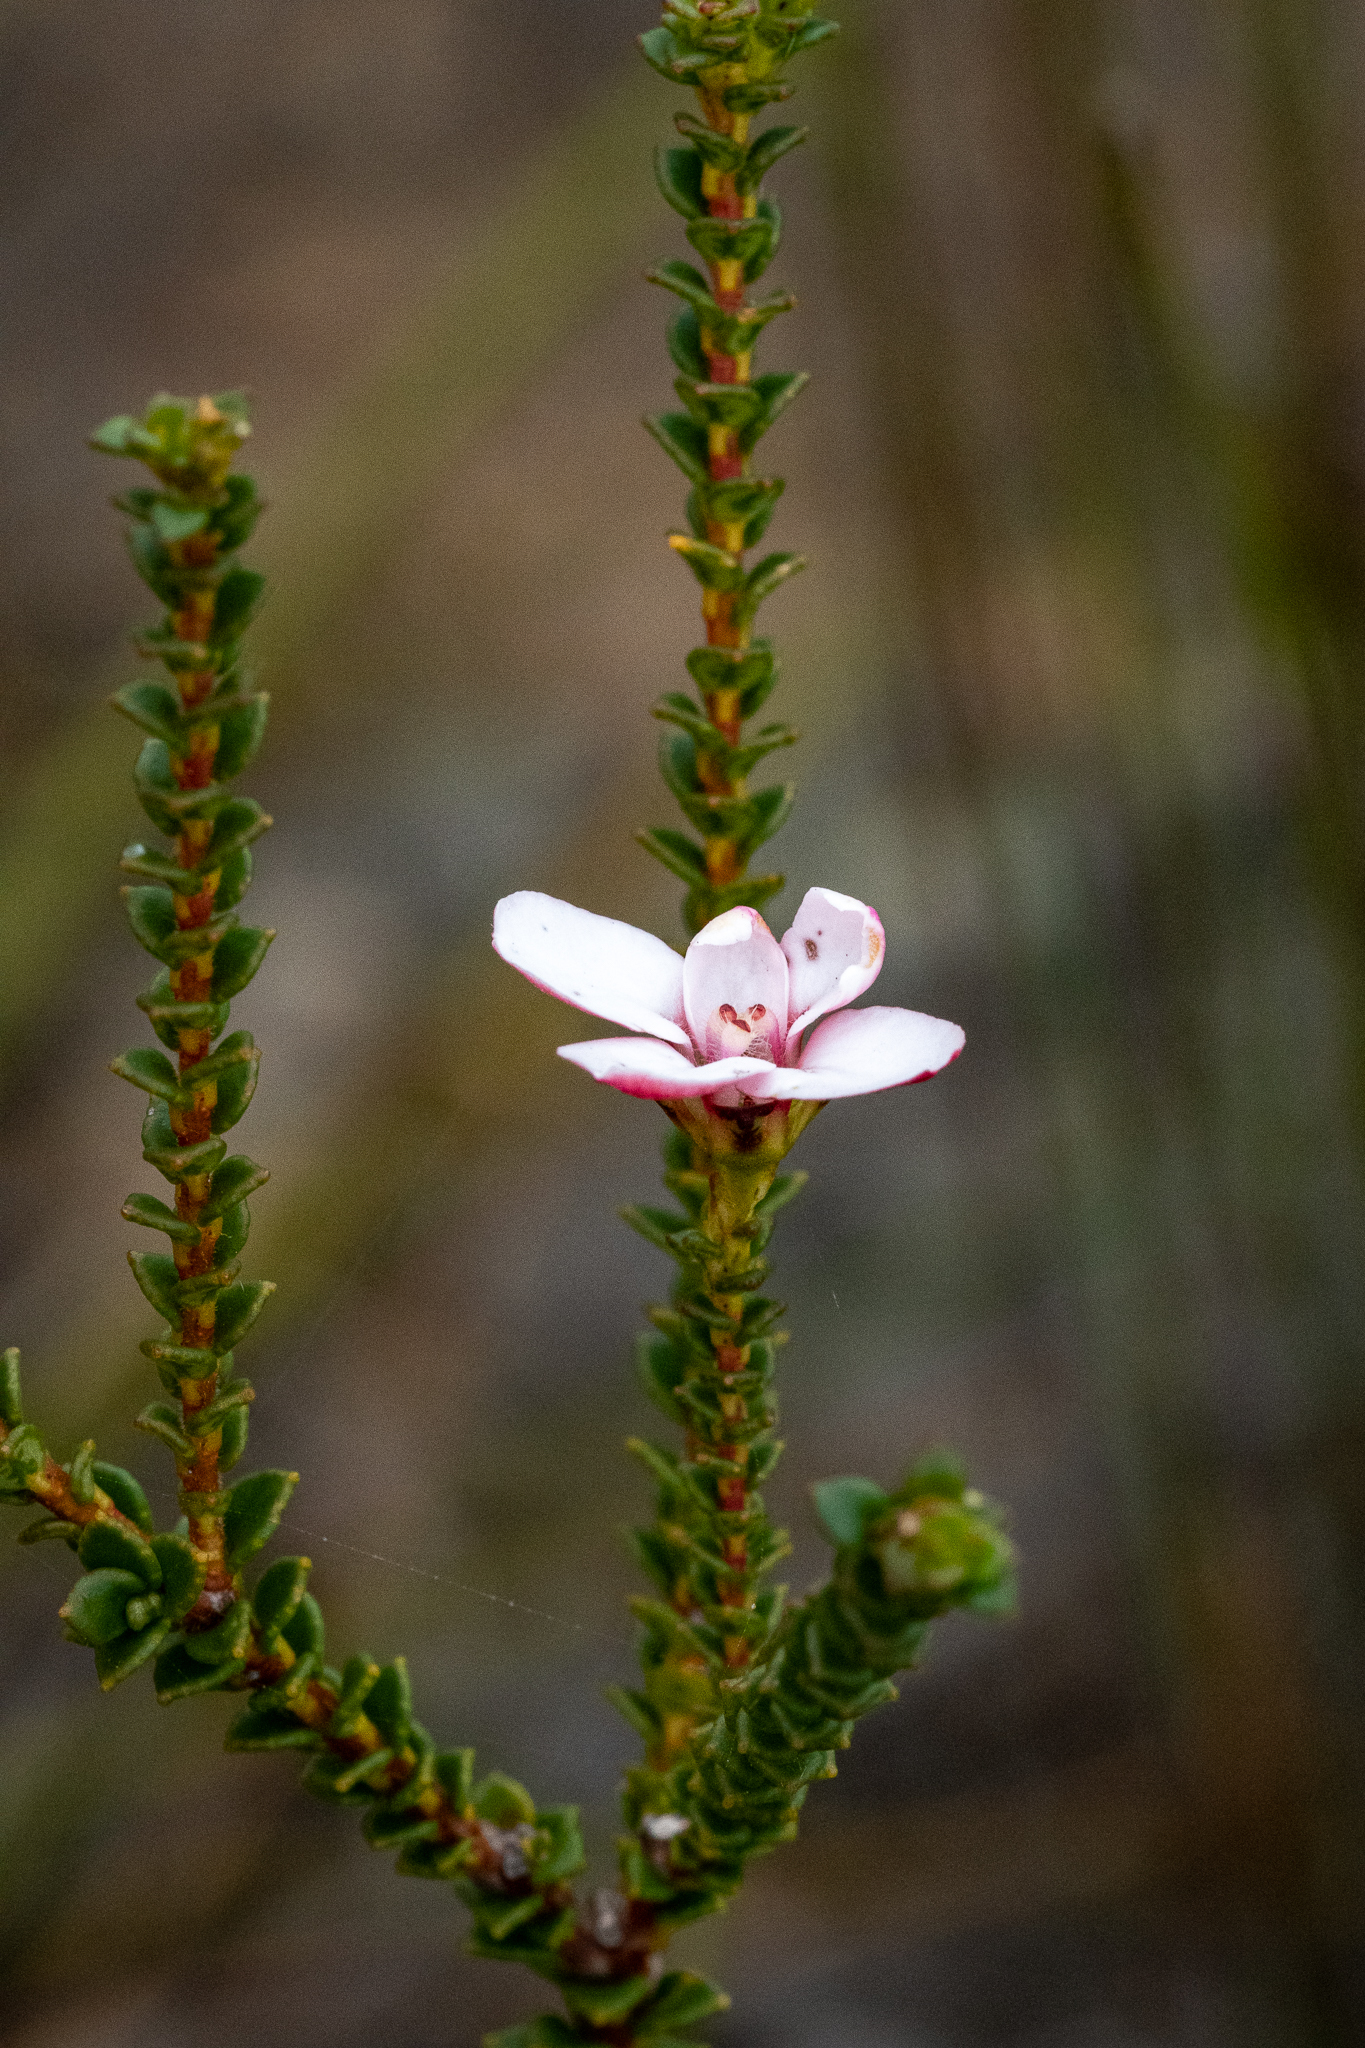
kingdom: Plantae
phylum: Tracheophyta
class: Magnoliopsida
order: Sapindales
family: Rutaceae
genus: Adenandra
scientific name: Adenandra brachyphylla
